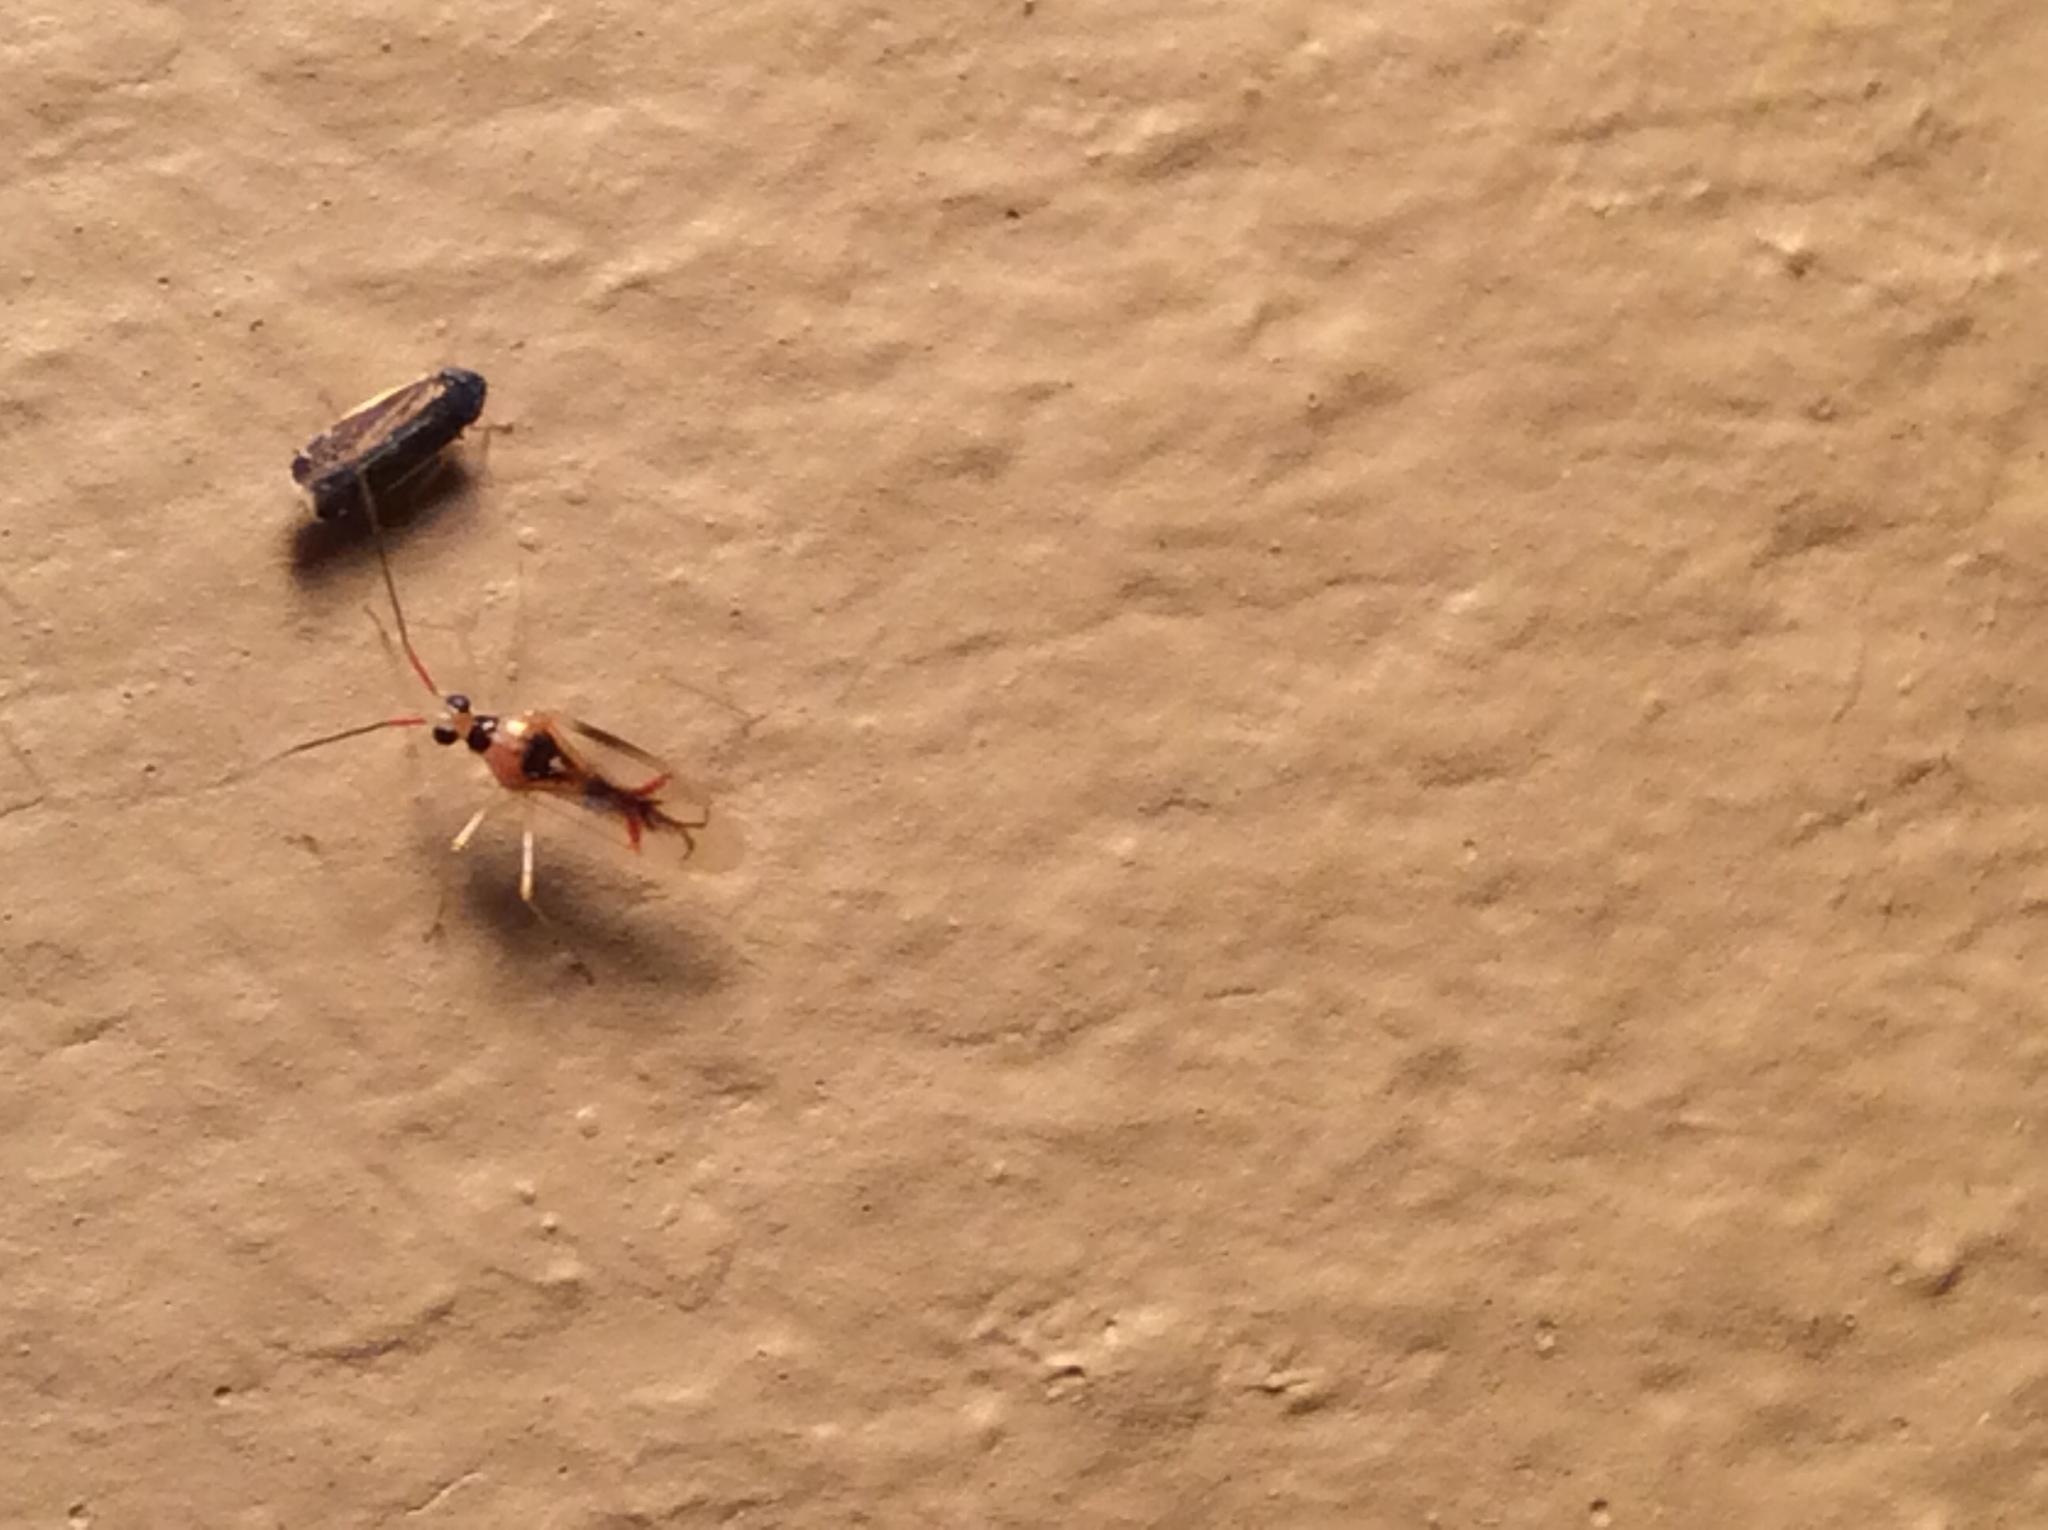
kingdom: Animalia
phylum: Arthropoda
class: Insecta
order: Hemiptera
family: Miridae
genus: Hyaliodes
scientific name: Hyaliodes harti
